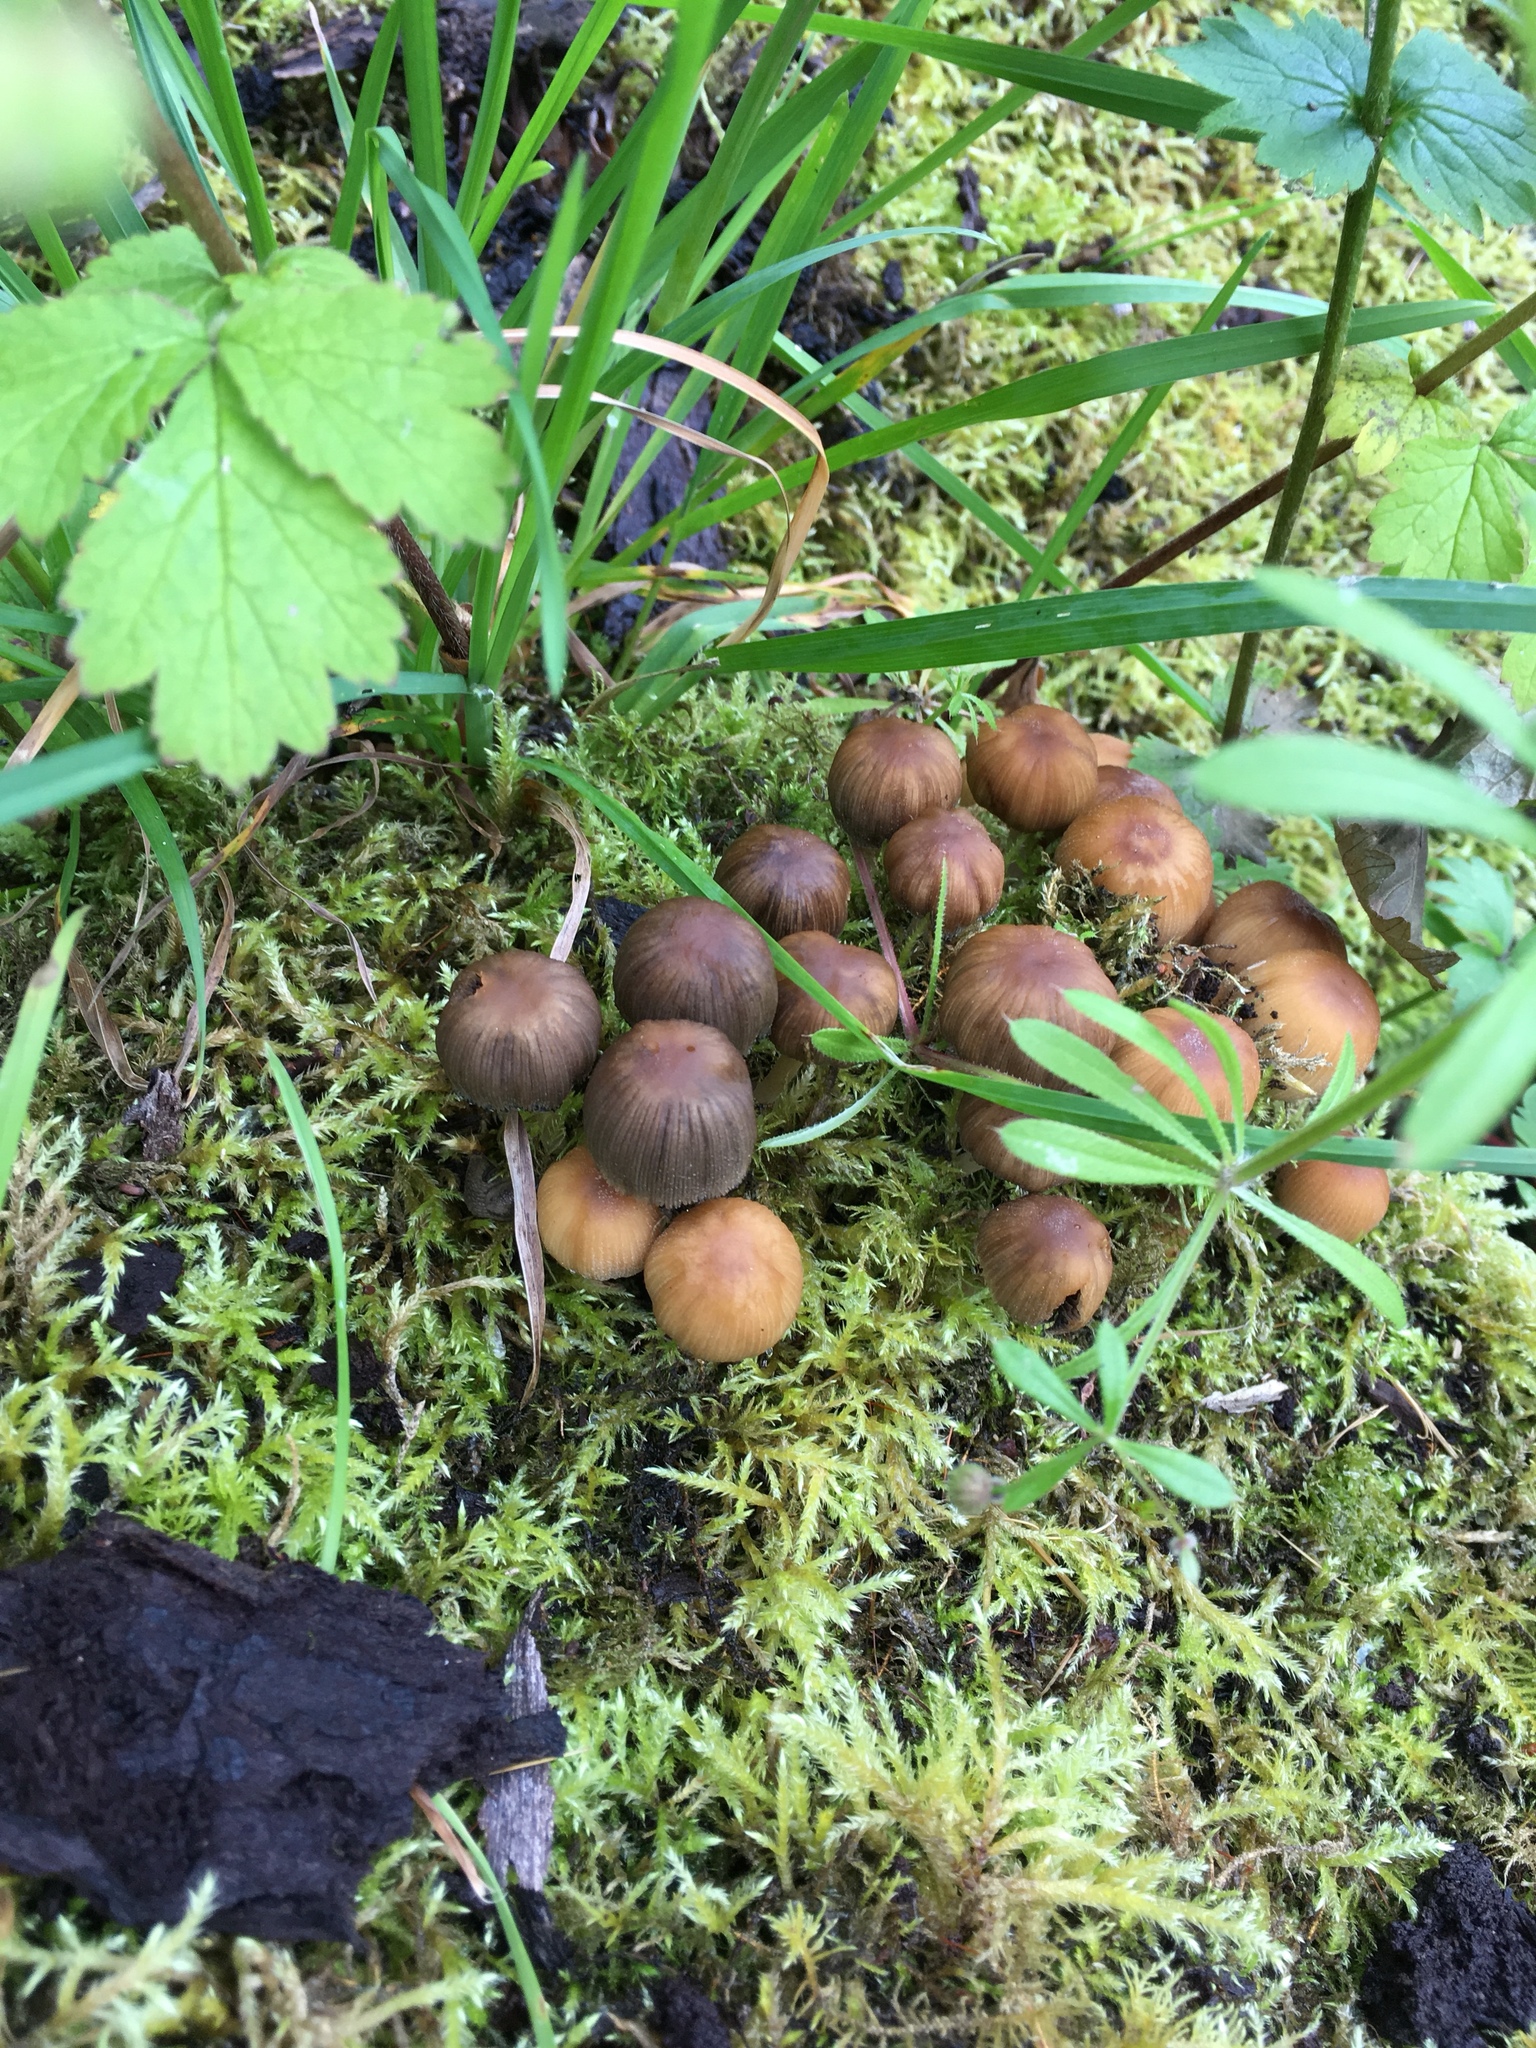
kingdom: Fungi
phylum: Basidiomycota
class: Agaricomycetes
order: Agaricales
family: Psathyrellaceae
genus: Coprinellus
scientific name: Coprinellus micaceus
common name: Glistening ink-cap
